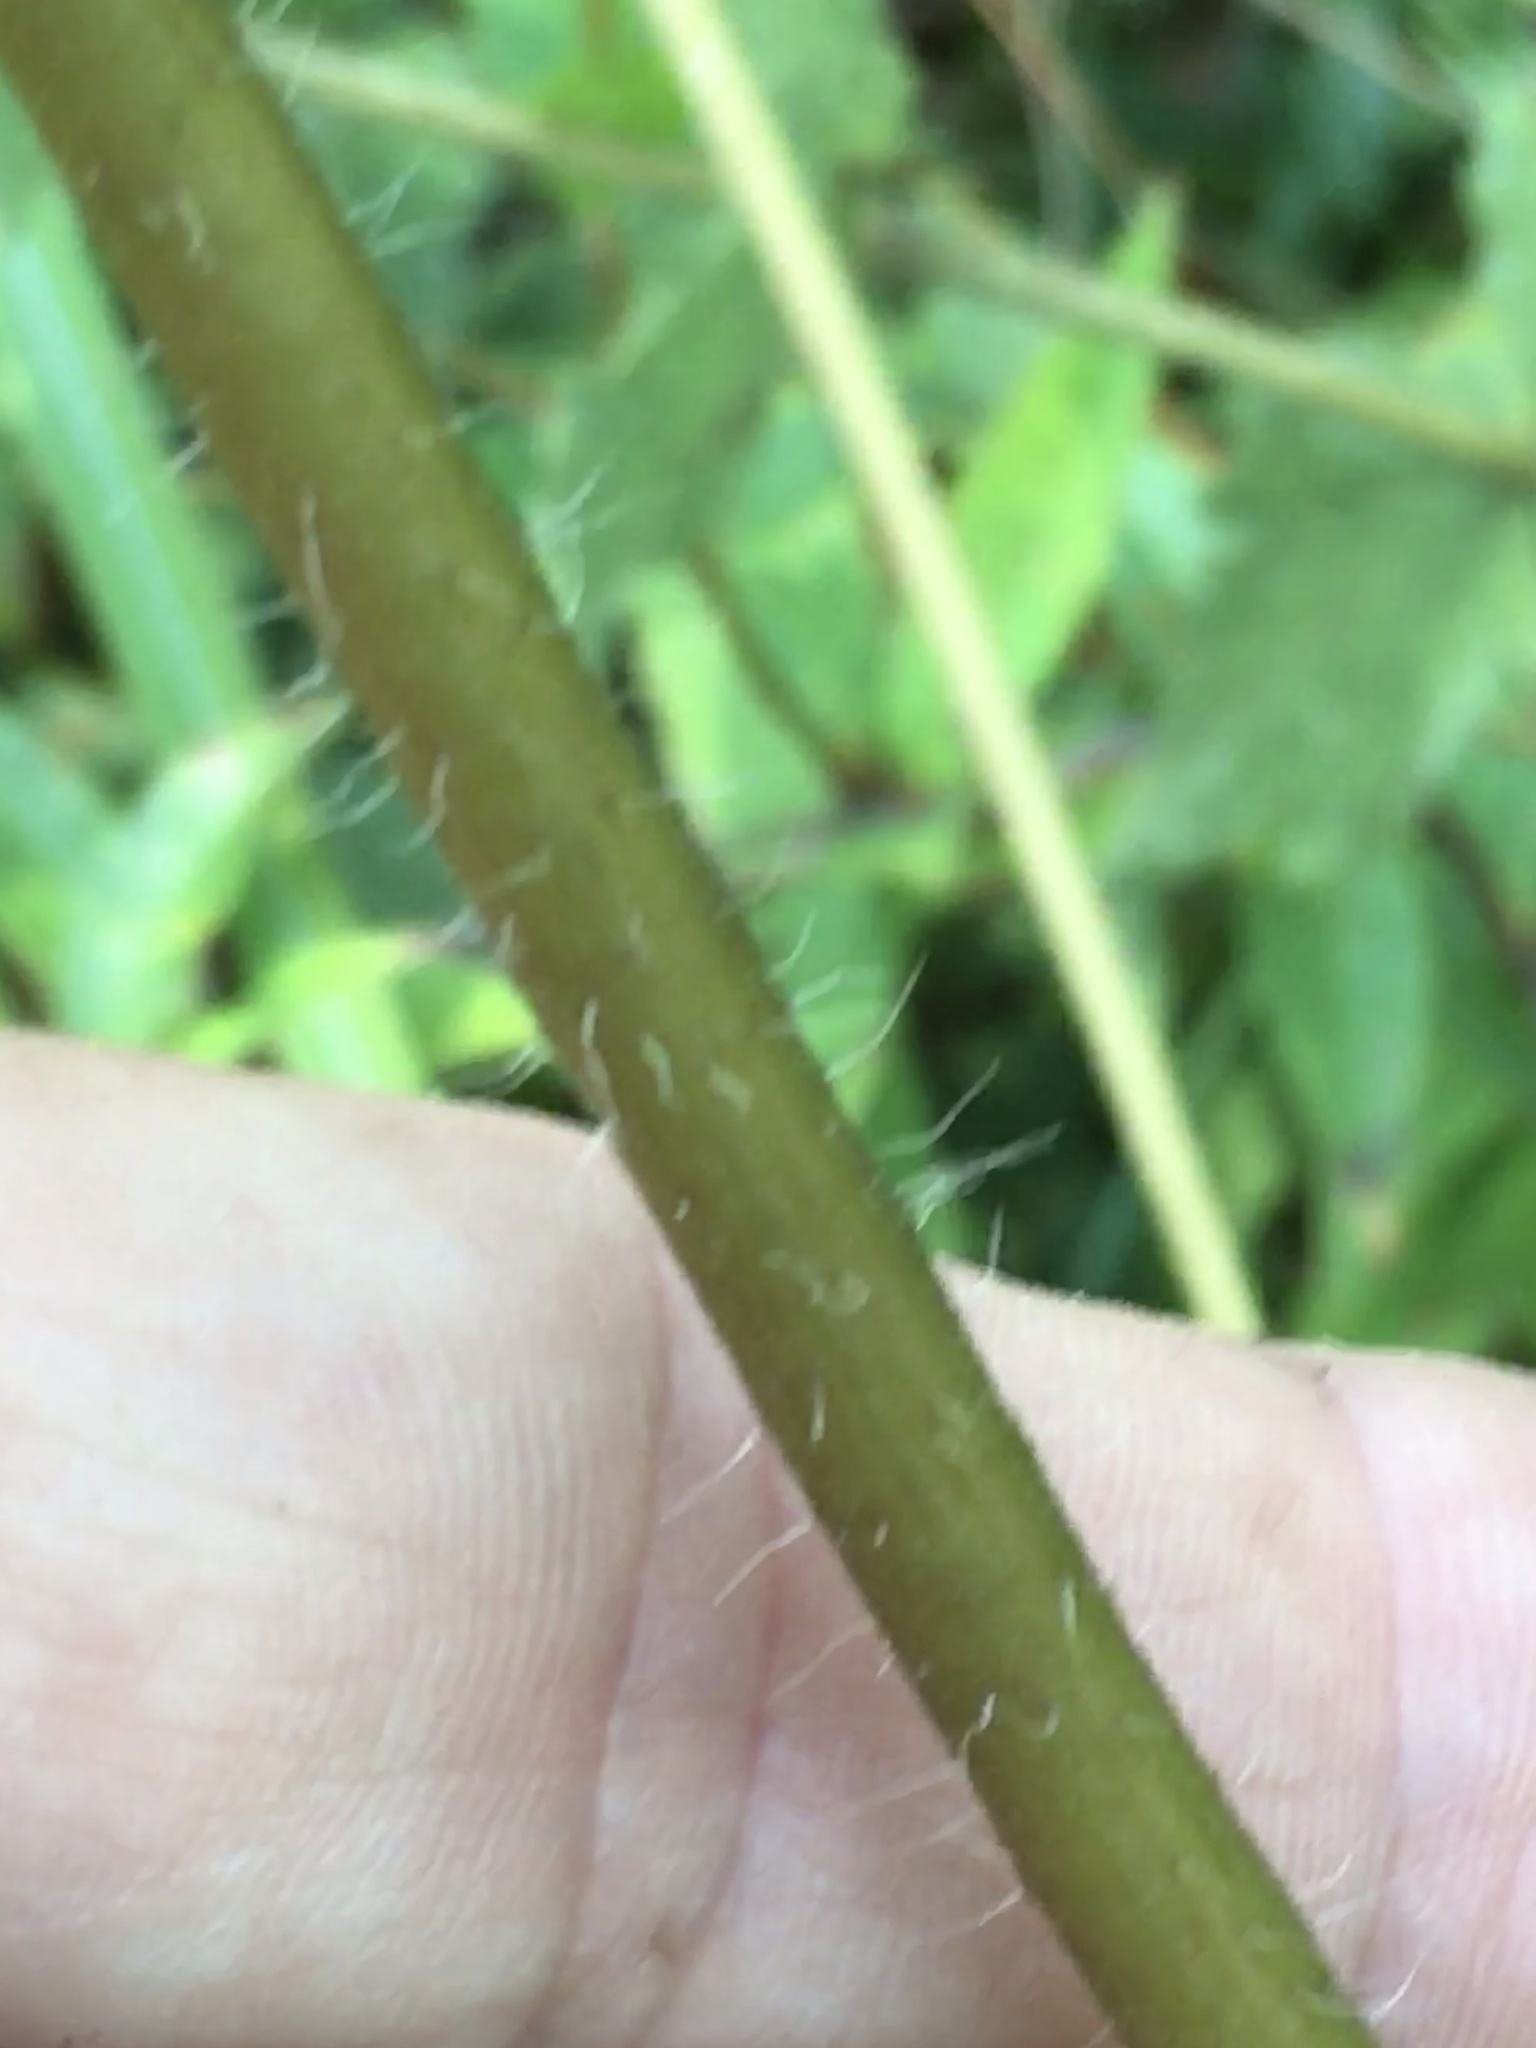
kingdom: Plantae
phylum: Tracheophyta
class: Magnoliopsida
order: Asterales
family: Asteraceae
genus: Helianthus
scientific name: Helianthus atrorubens
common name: Dark-eyed sunflower
